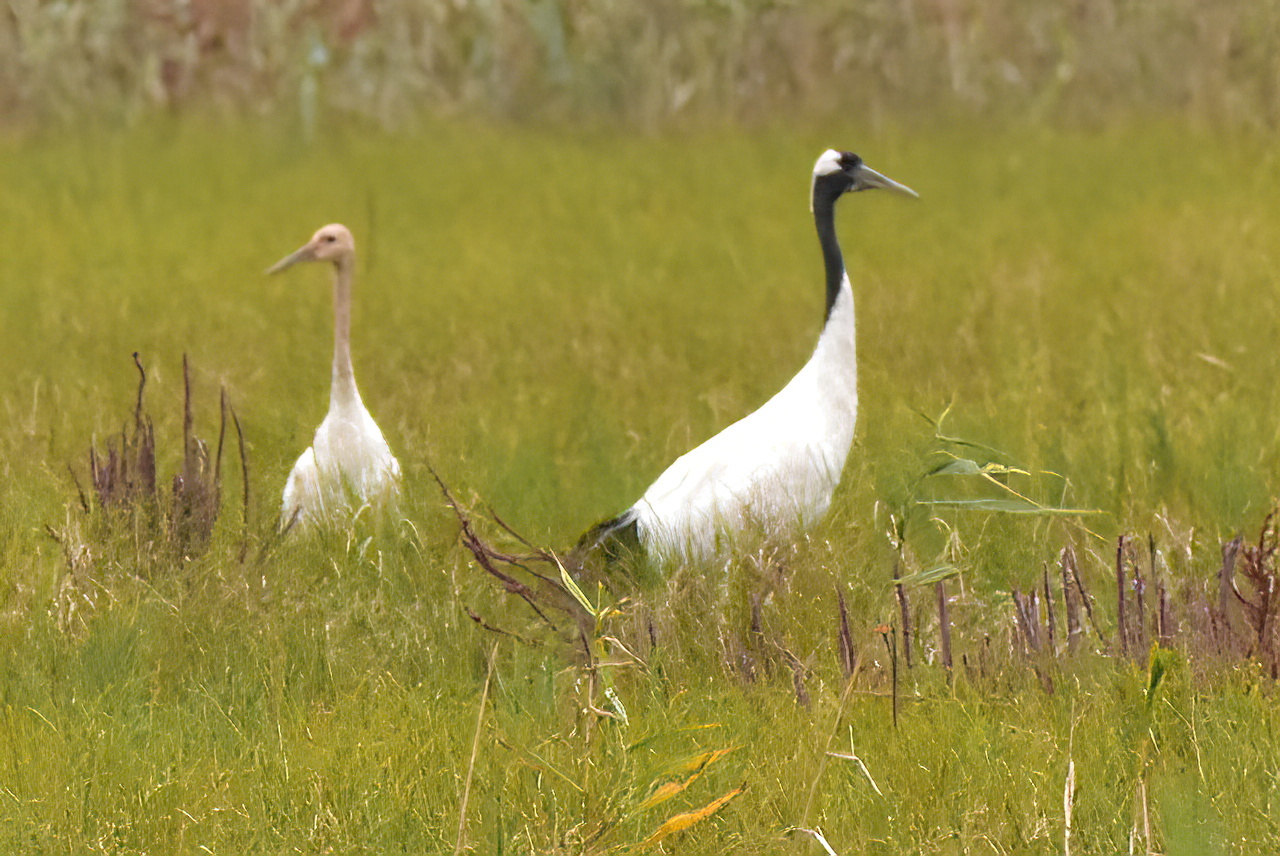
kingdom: Animalia
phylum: Chordata
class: Aves
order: Gruiformes
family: Gruidae
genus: Grus
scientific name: Grus japonensis
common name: Red-crowned crane
